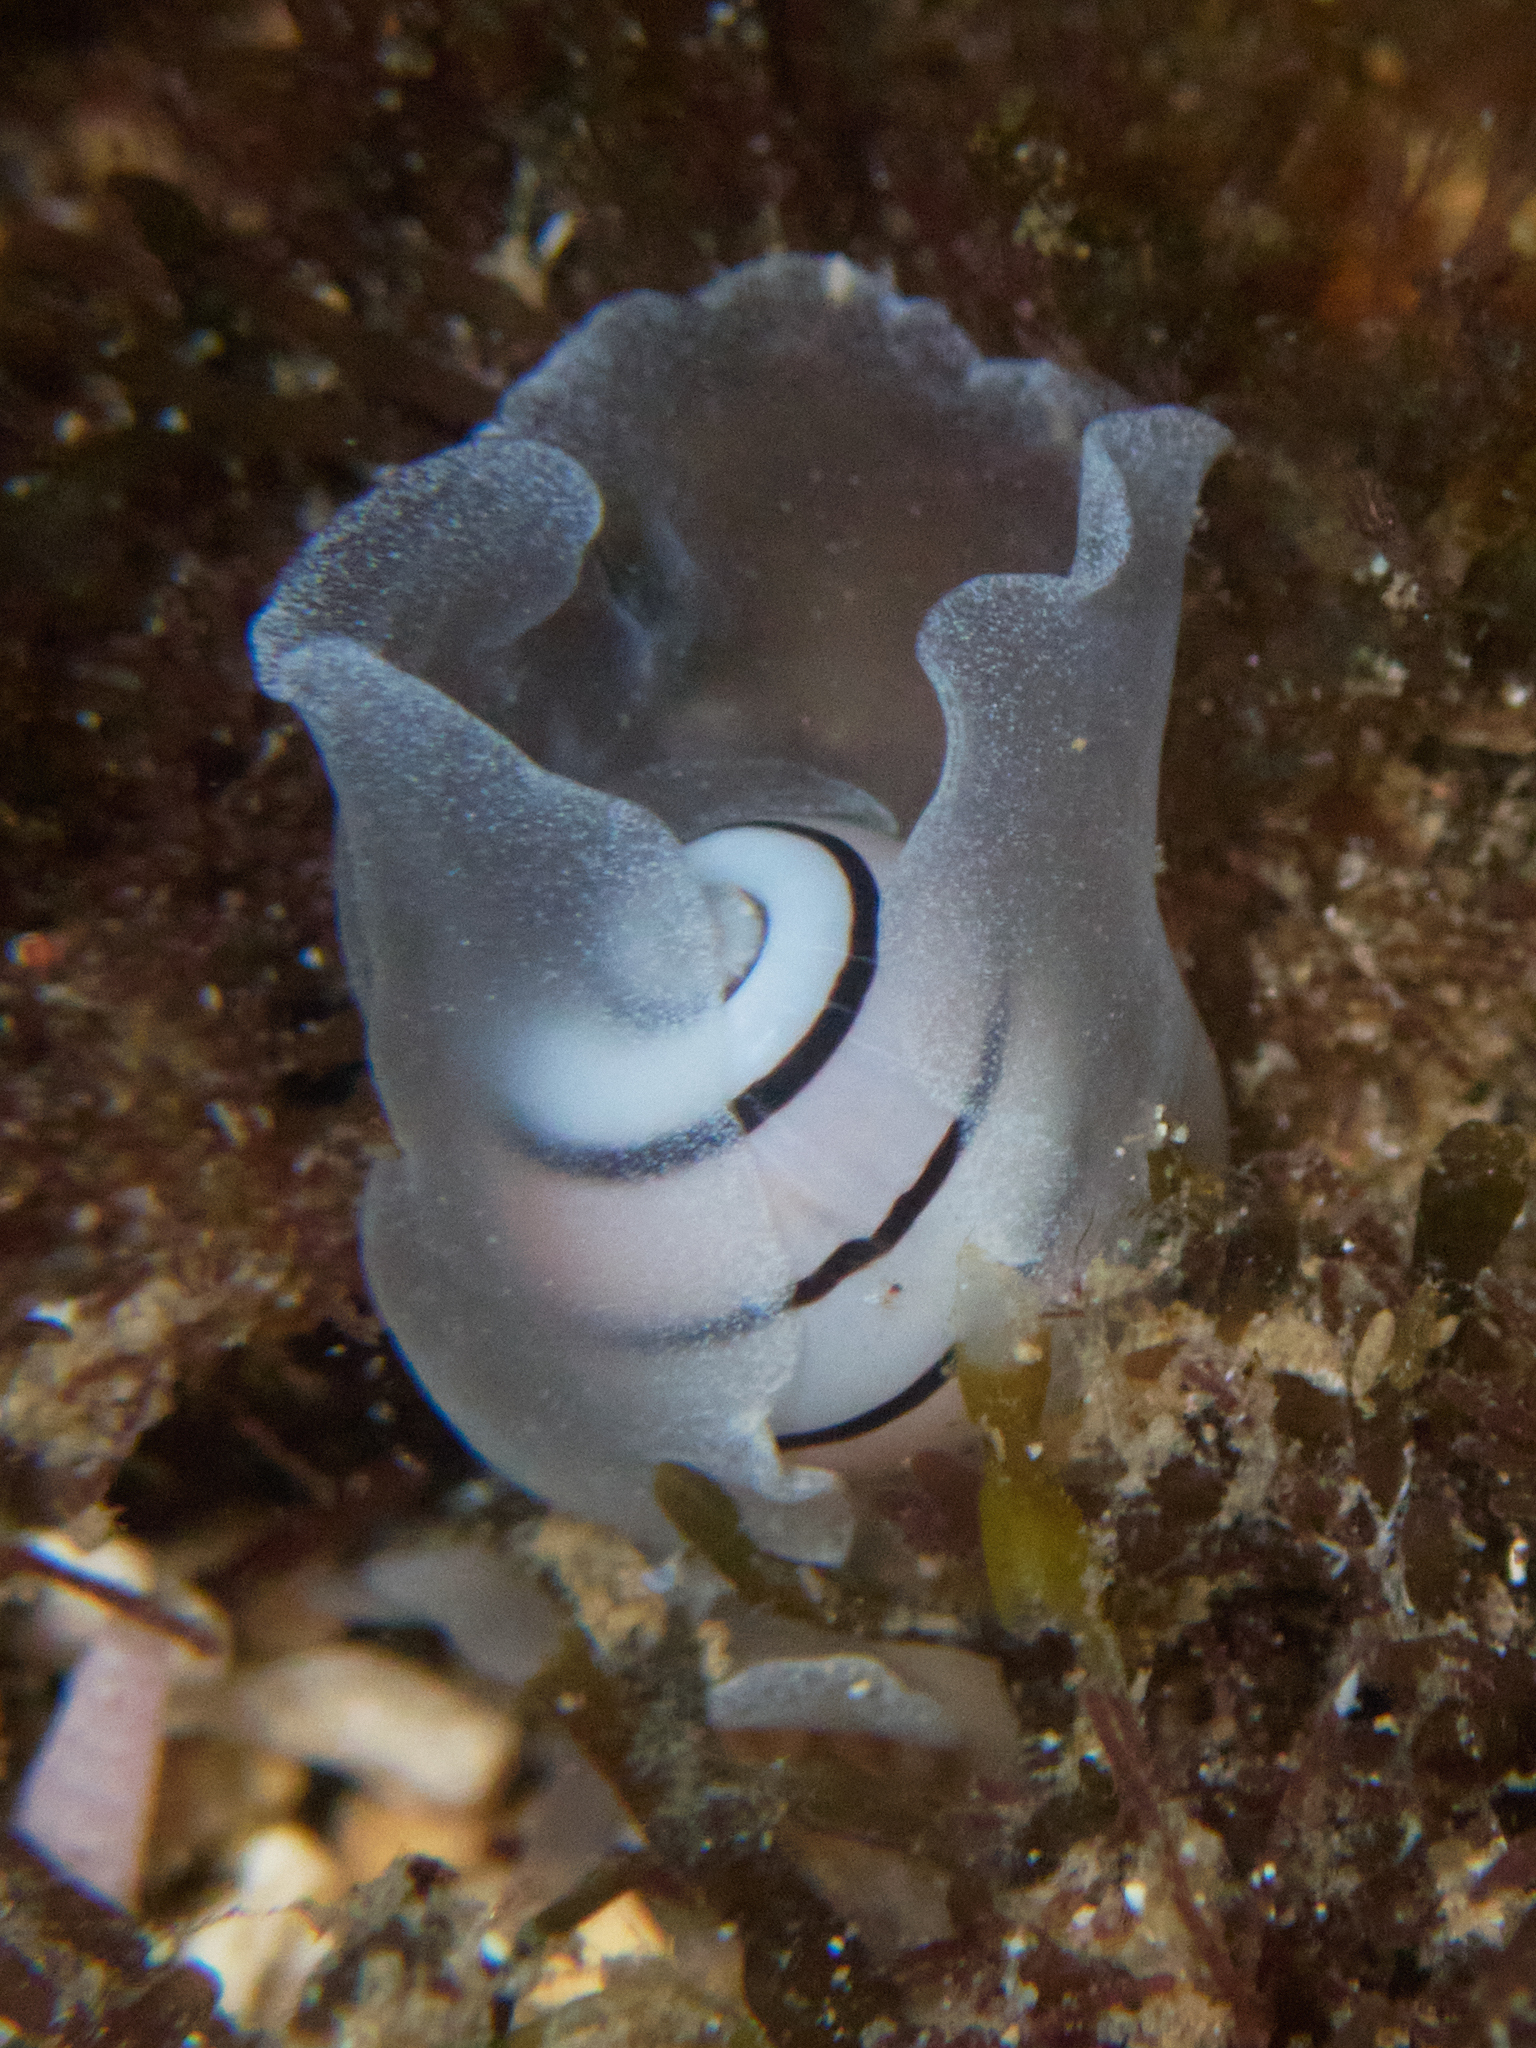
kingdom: Animalia
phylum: Mollusca
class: Gastropoda
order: Cephalaspidea
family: Aplustridae
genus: Aplustrum
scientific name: Aplustrum amplustre
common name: Royal paperbubble
